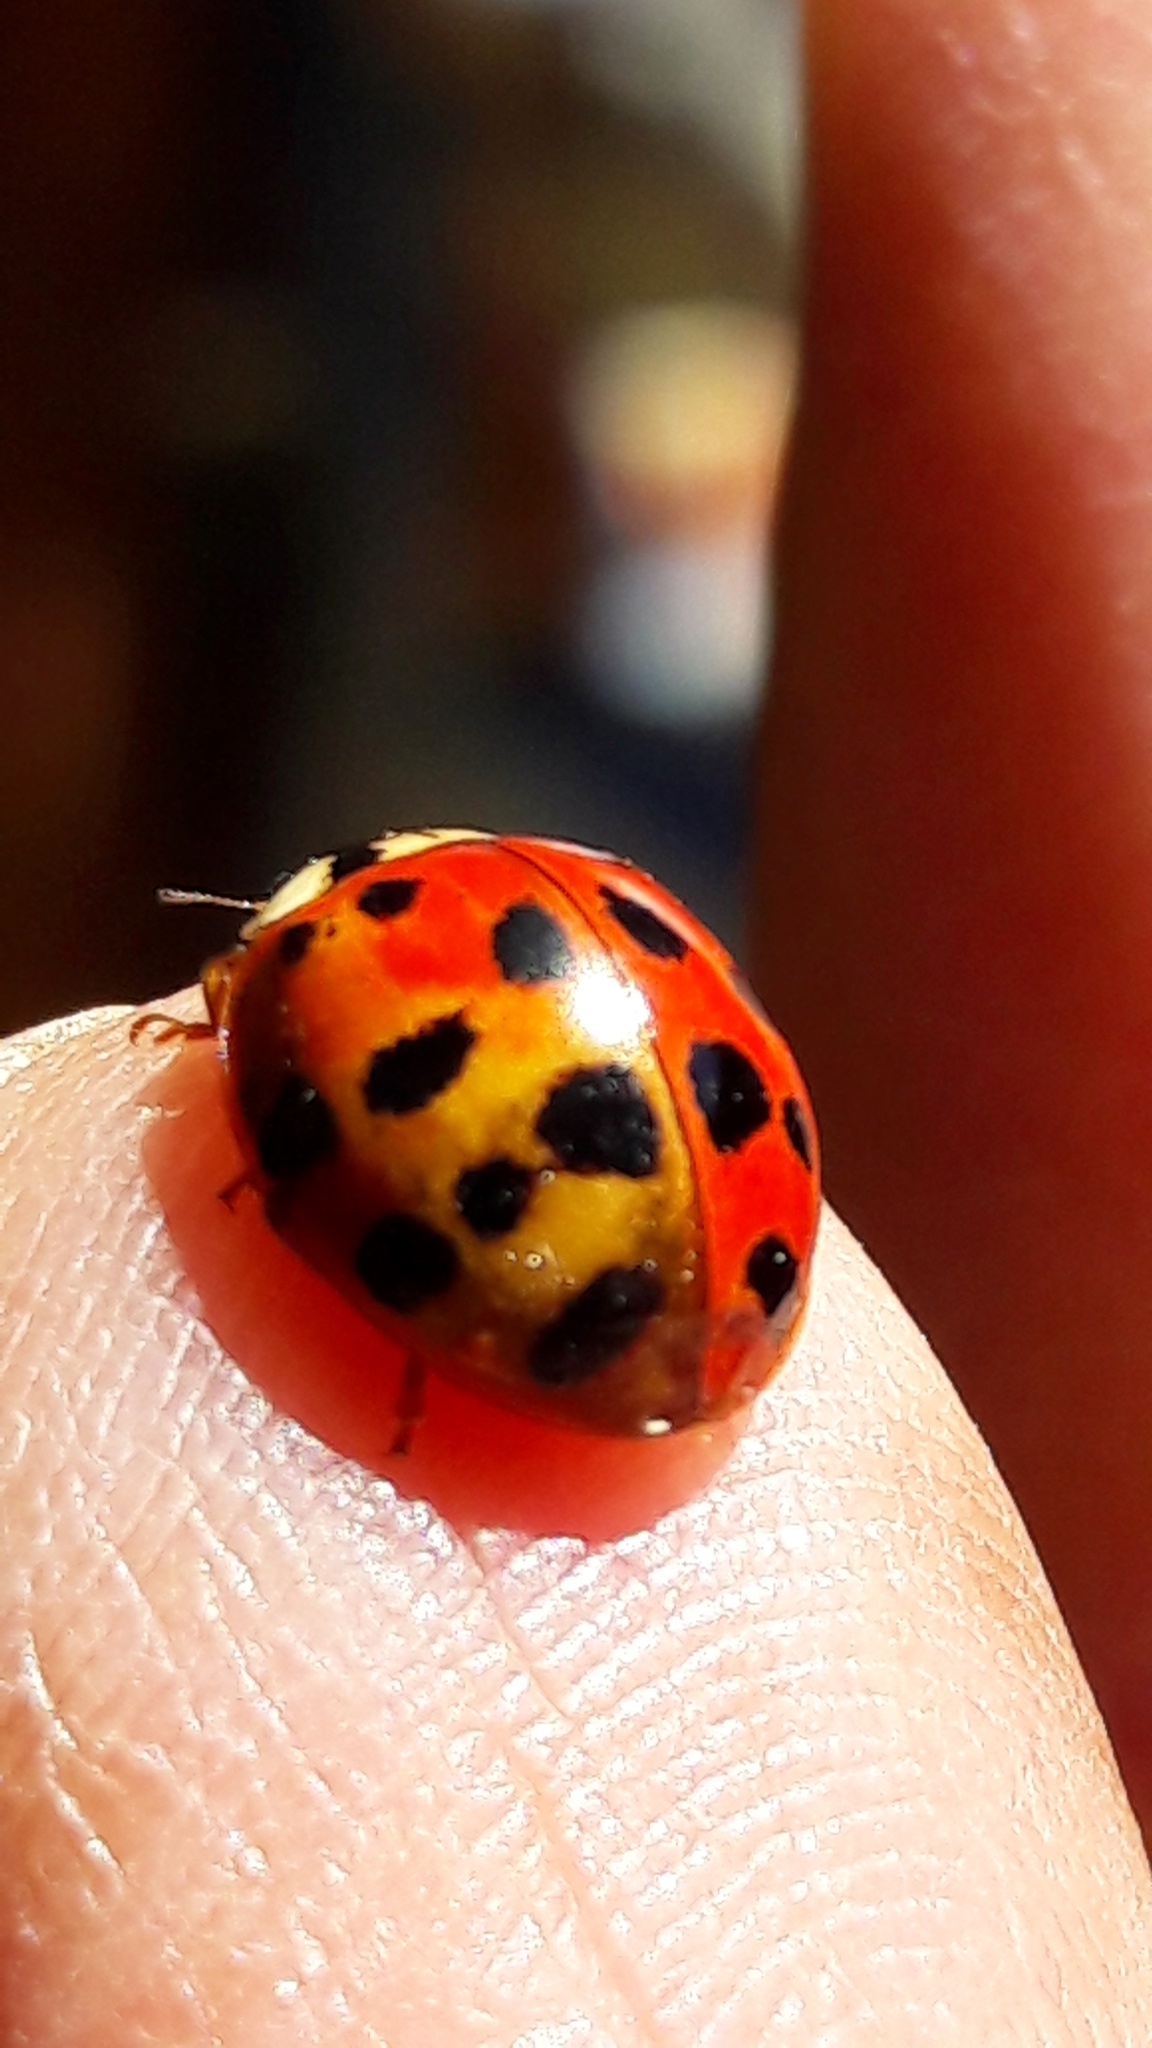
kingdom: Animalia
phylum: Arthropoda
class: Insecta
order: Coleoptera
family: Coccinellidae
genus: Harmonia
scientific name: Harmonia axyridis
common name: Harlequin ladybird
